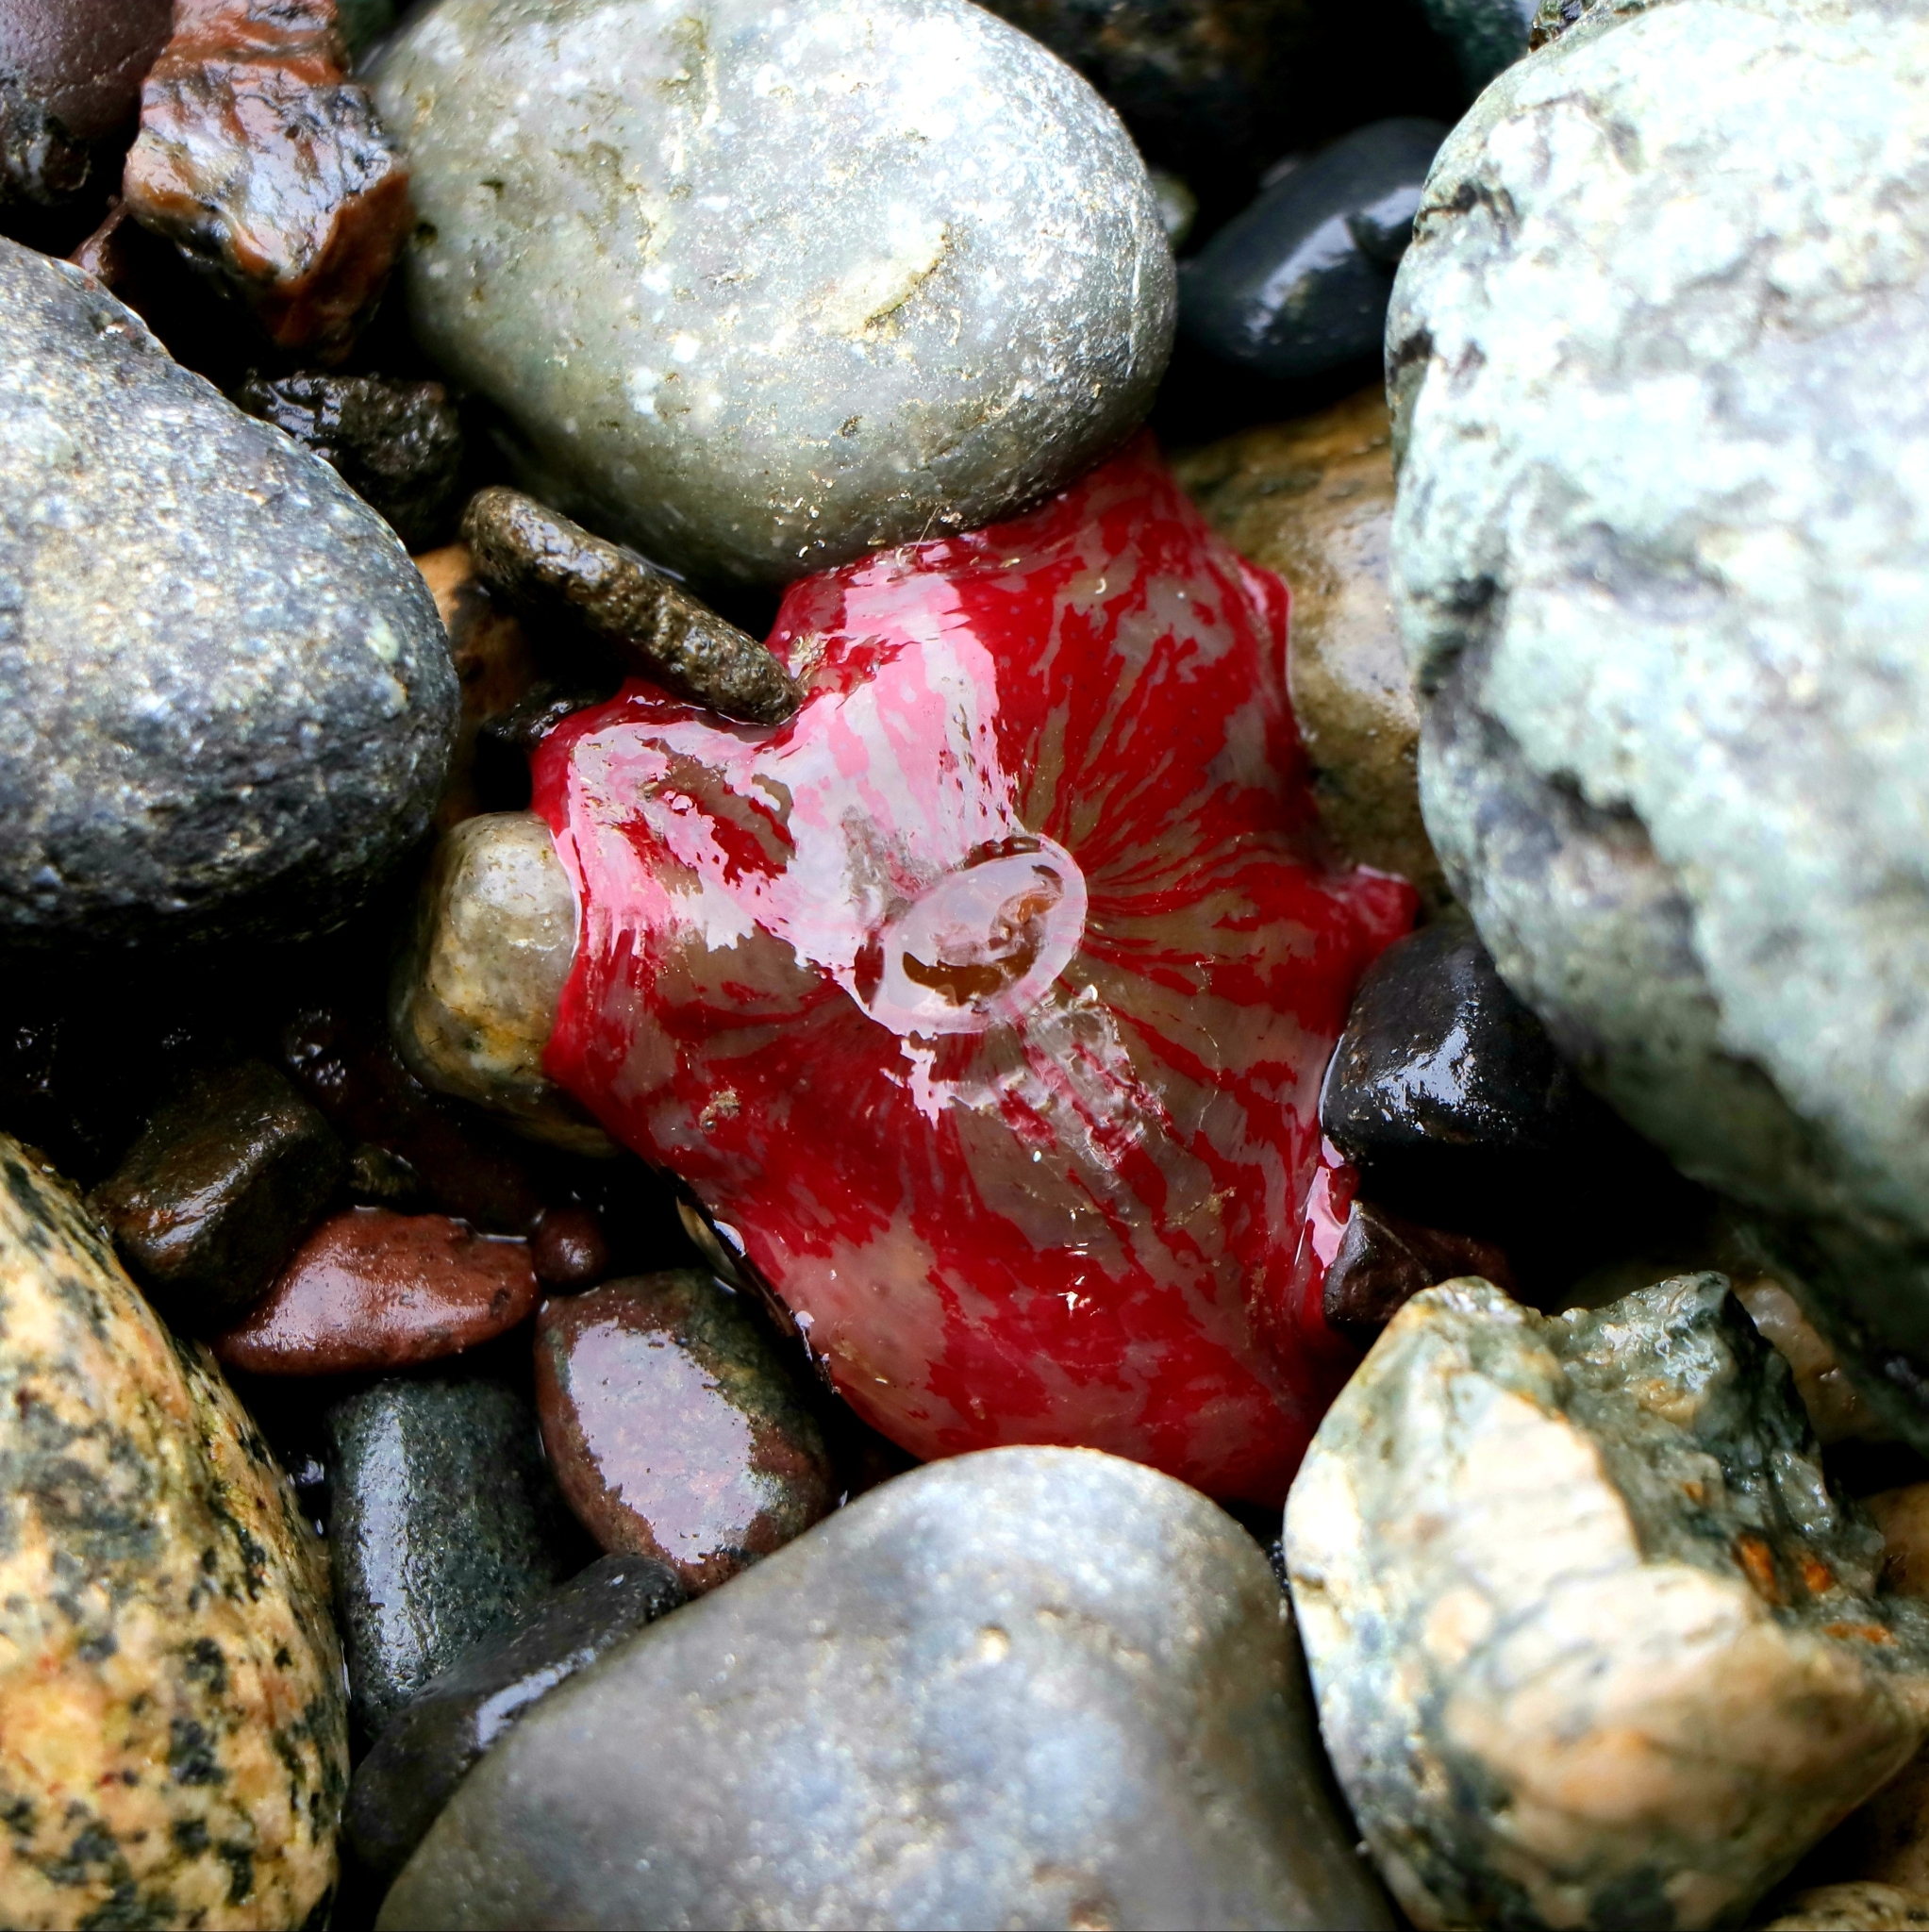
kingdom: Animalia
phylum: Cnidaria
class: Anthozoa
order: Actiniaria
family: Actiniidae
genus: Urticina
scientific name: Urticina grebelnyi
